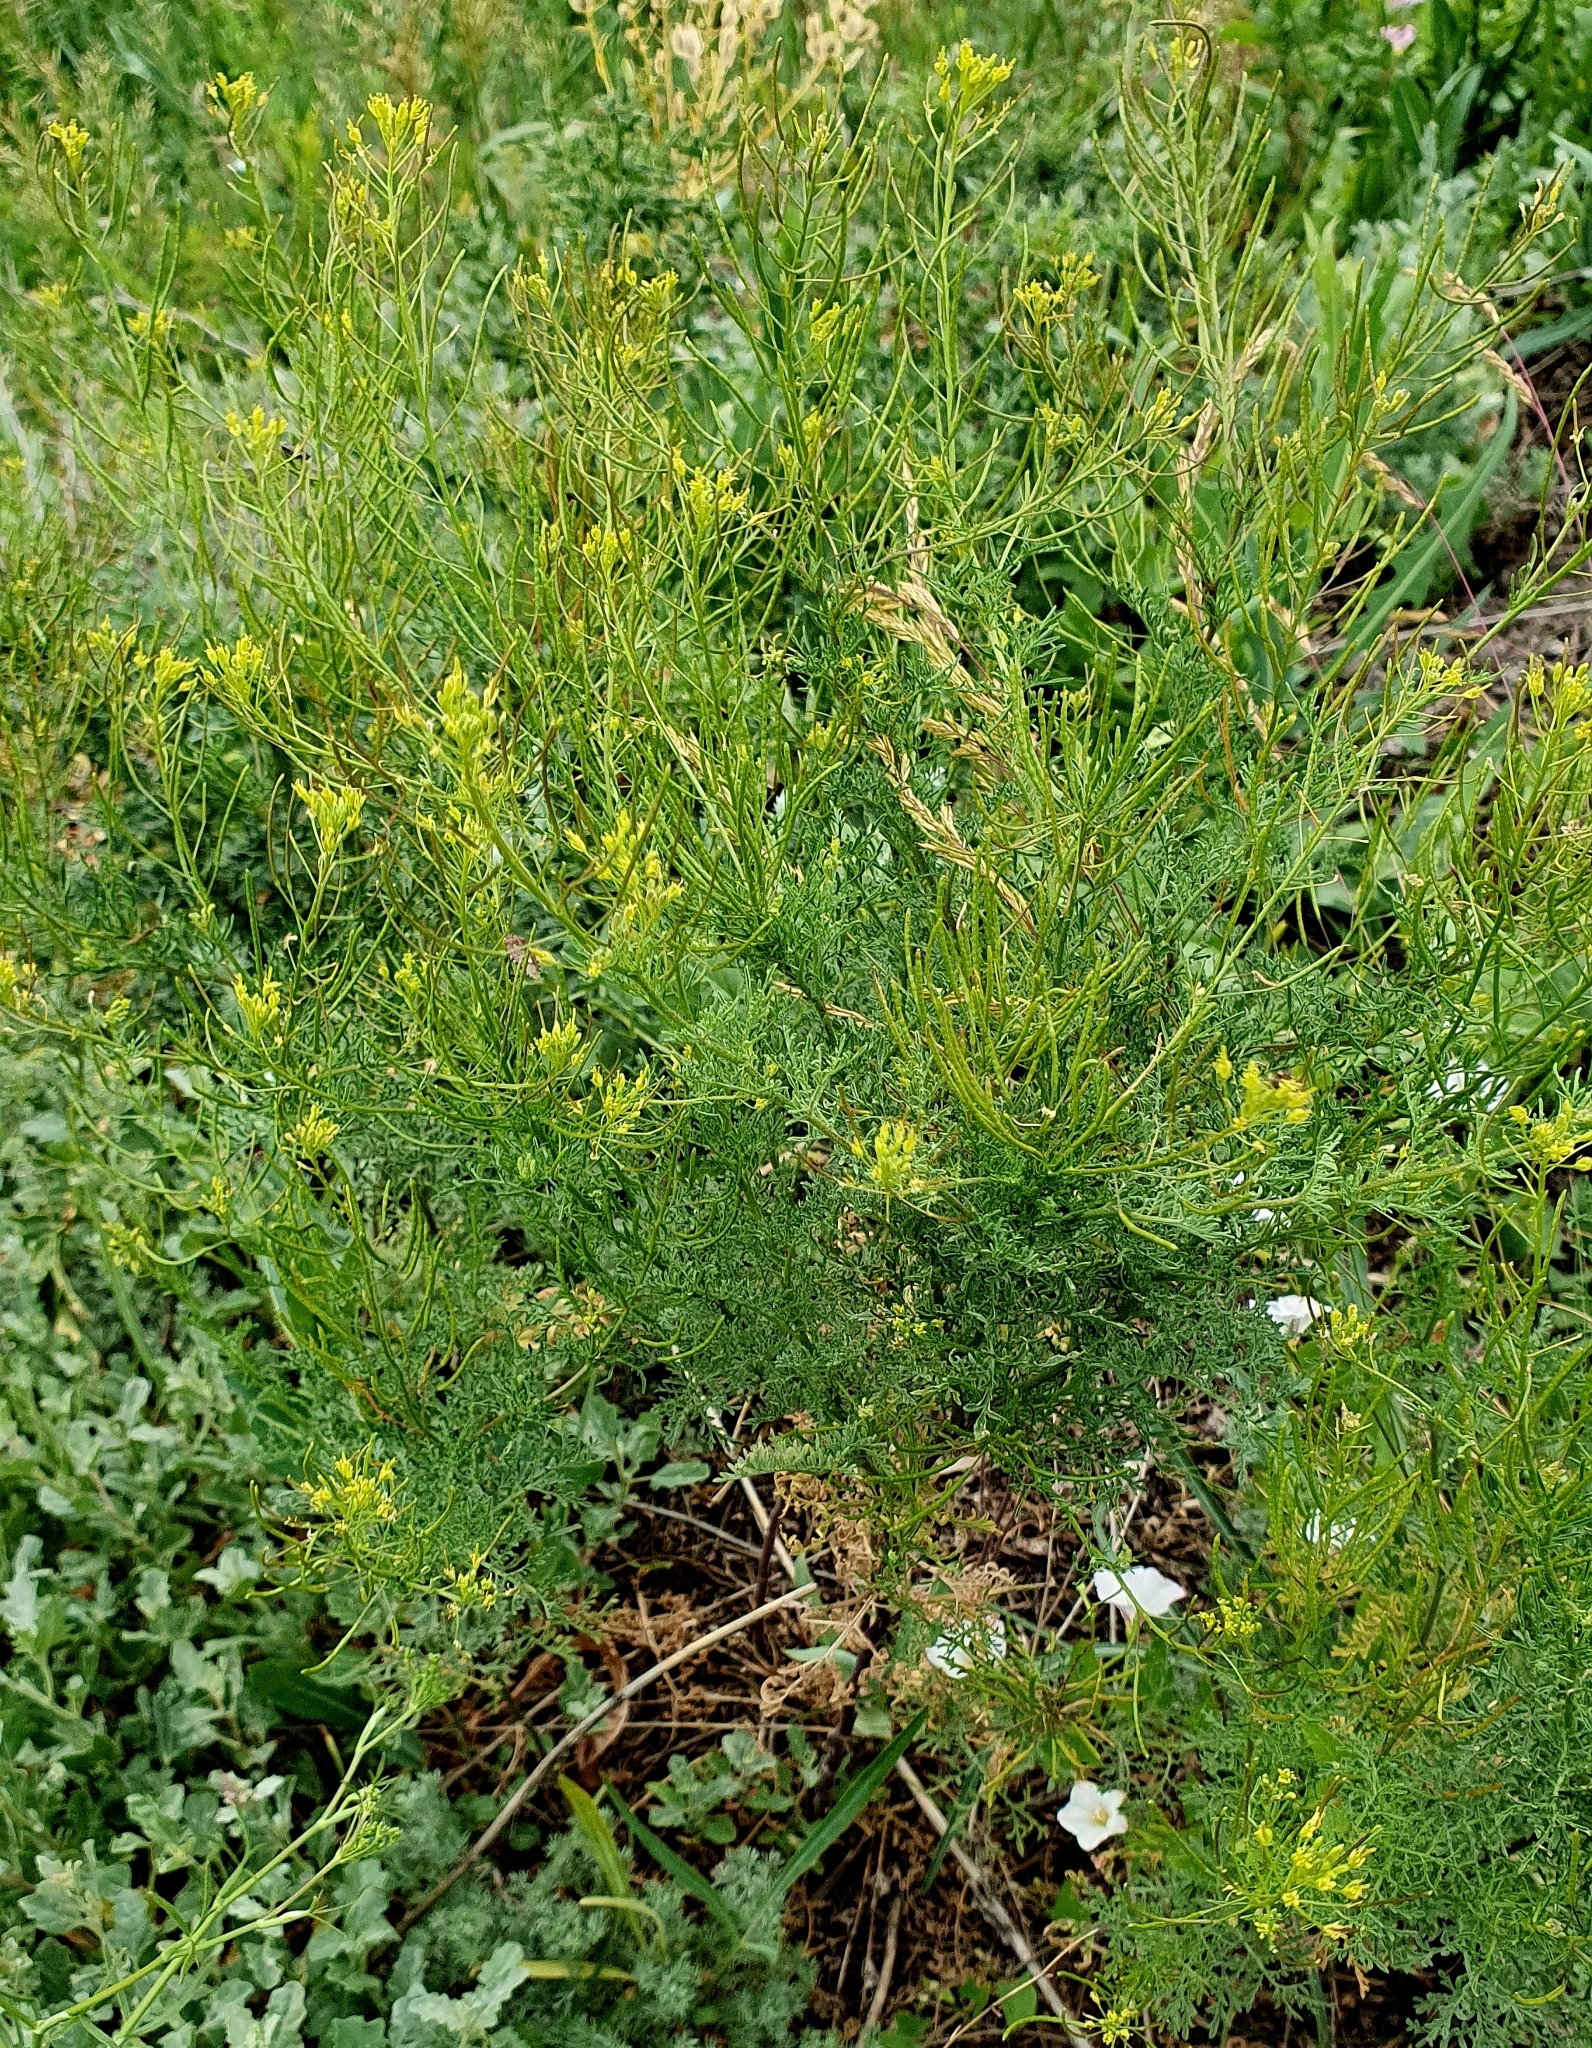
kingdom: Plantae
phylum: Tracheophyta
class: Magnoliopsida
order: Brassicales
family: Brassicaceae
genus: Descurainia
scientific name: Descurainia sophia
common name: Flixweed
